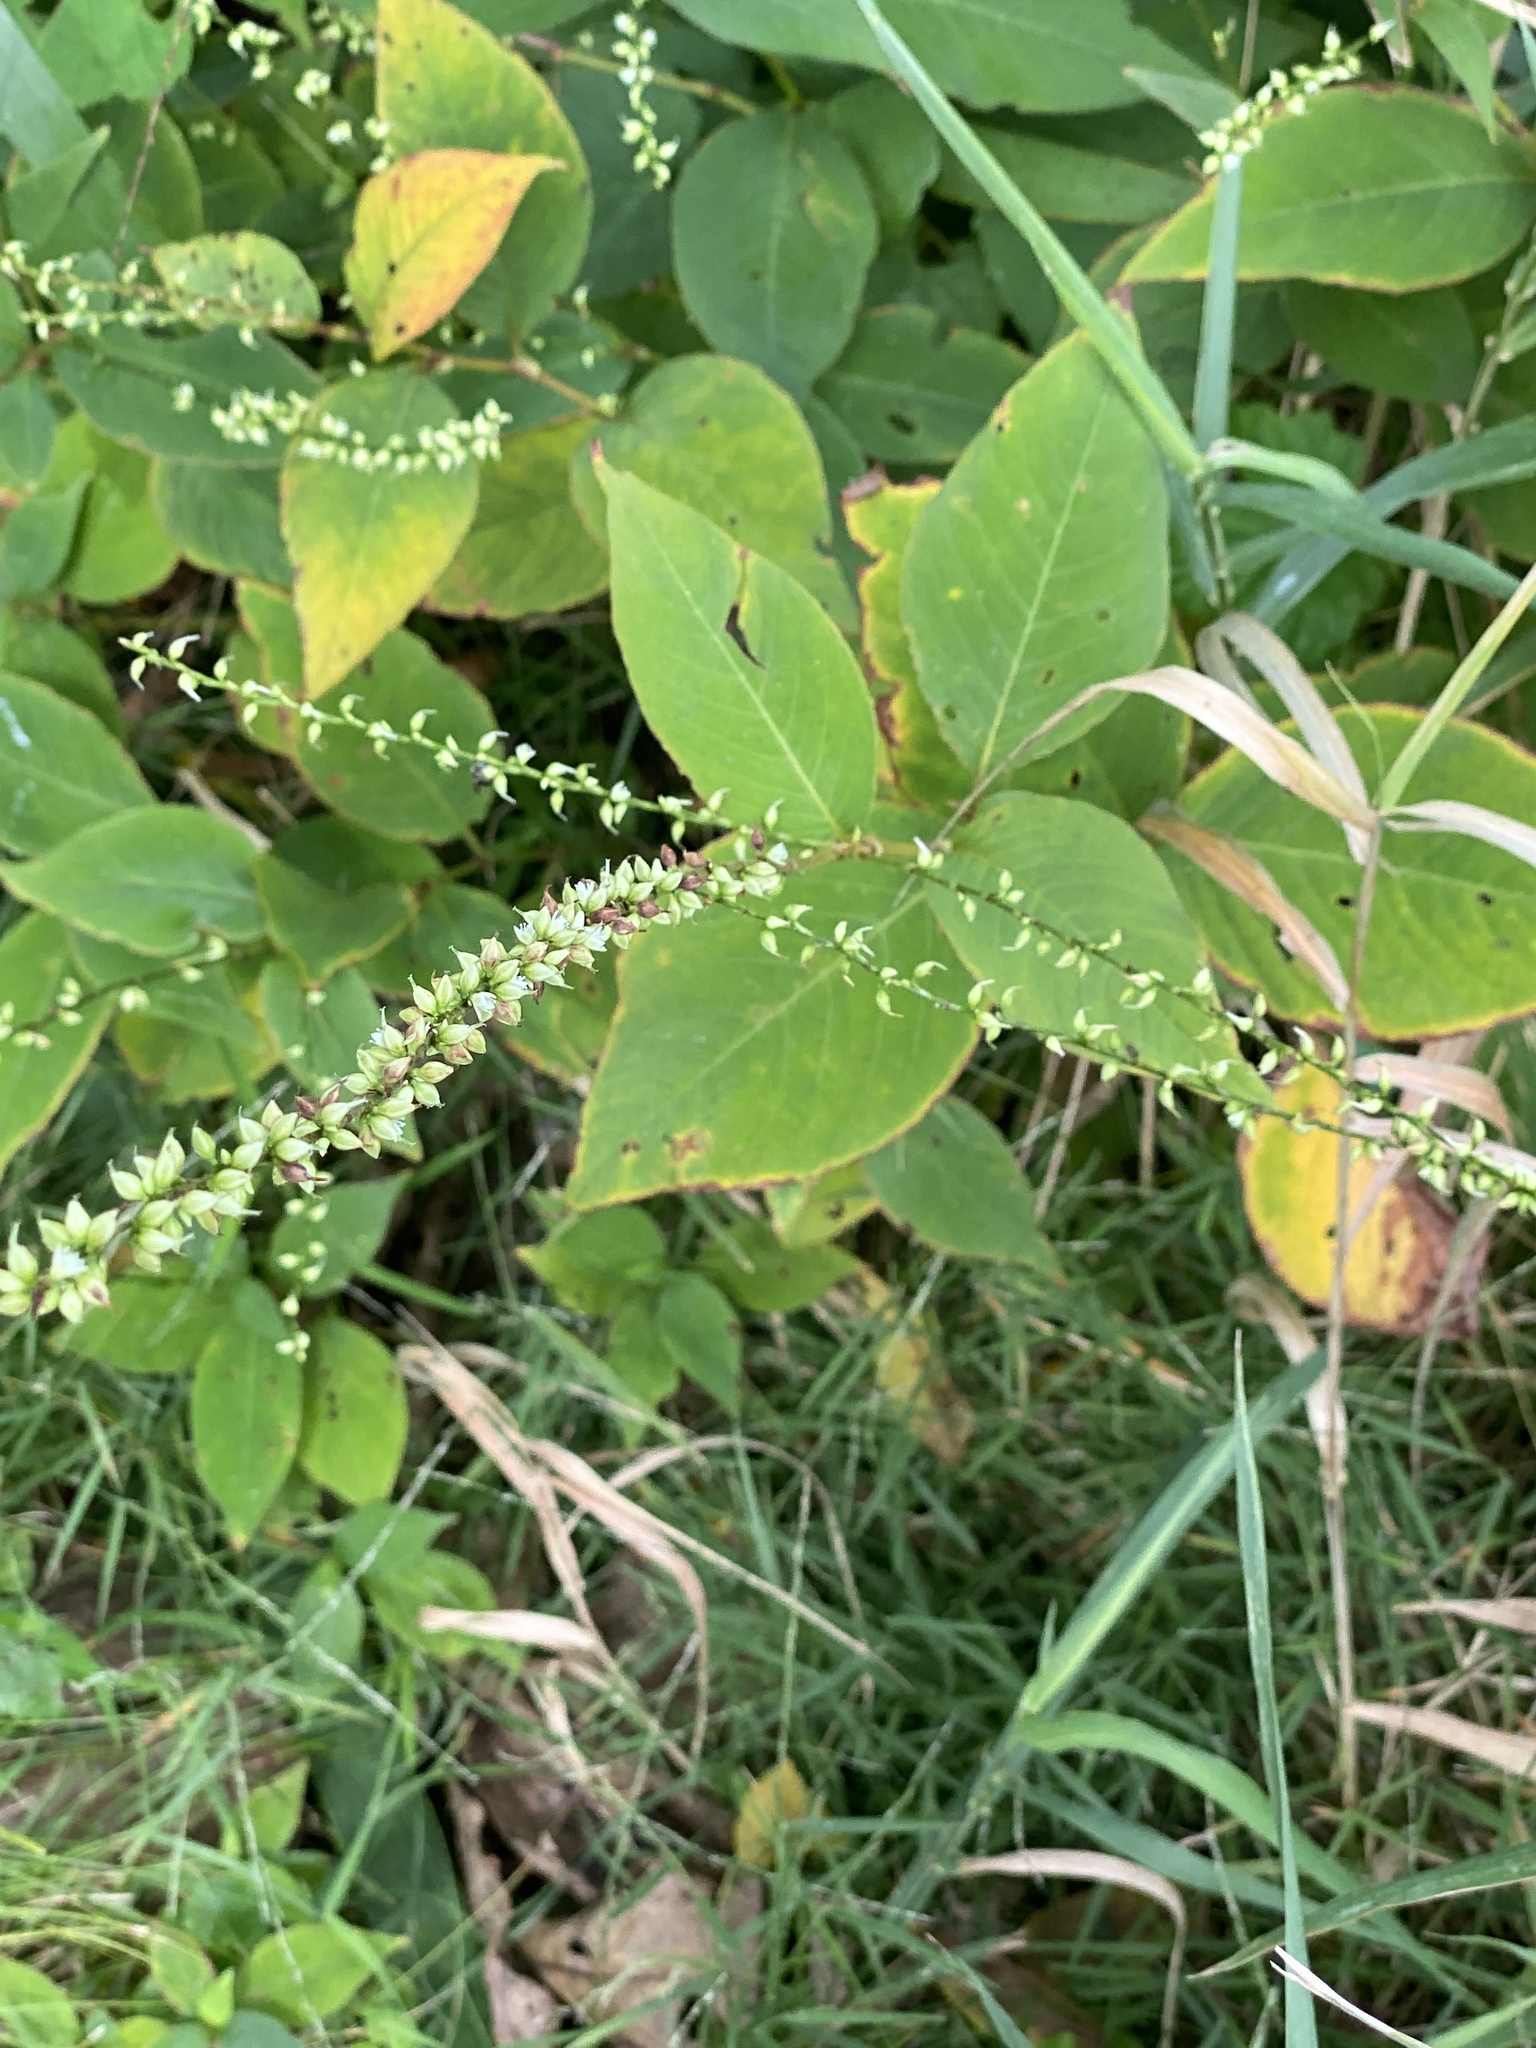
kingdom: Plantae
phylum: Tracheophyta
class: Magnoliopsida
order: Caryophyllales
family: Polygonaceae
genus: Persicaria
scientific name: Persicaria virginiana
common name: Jumpseed
